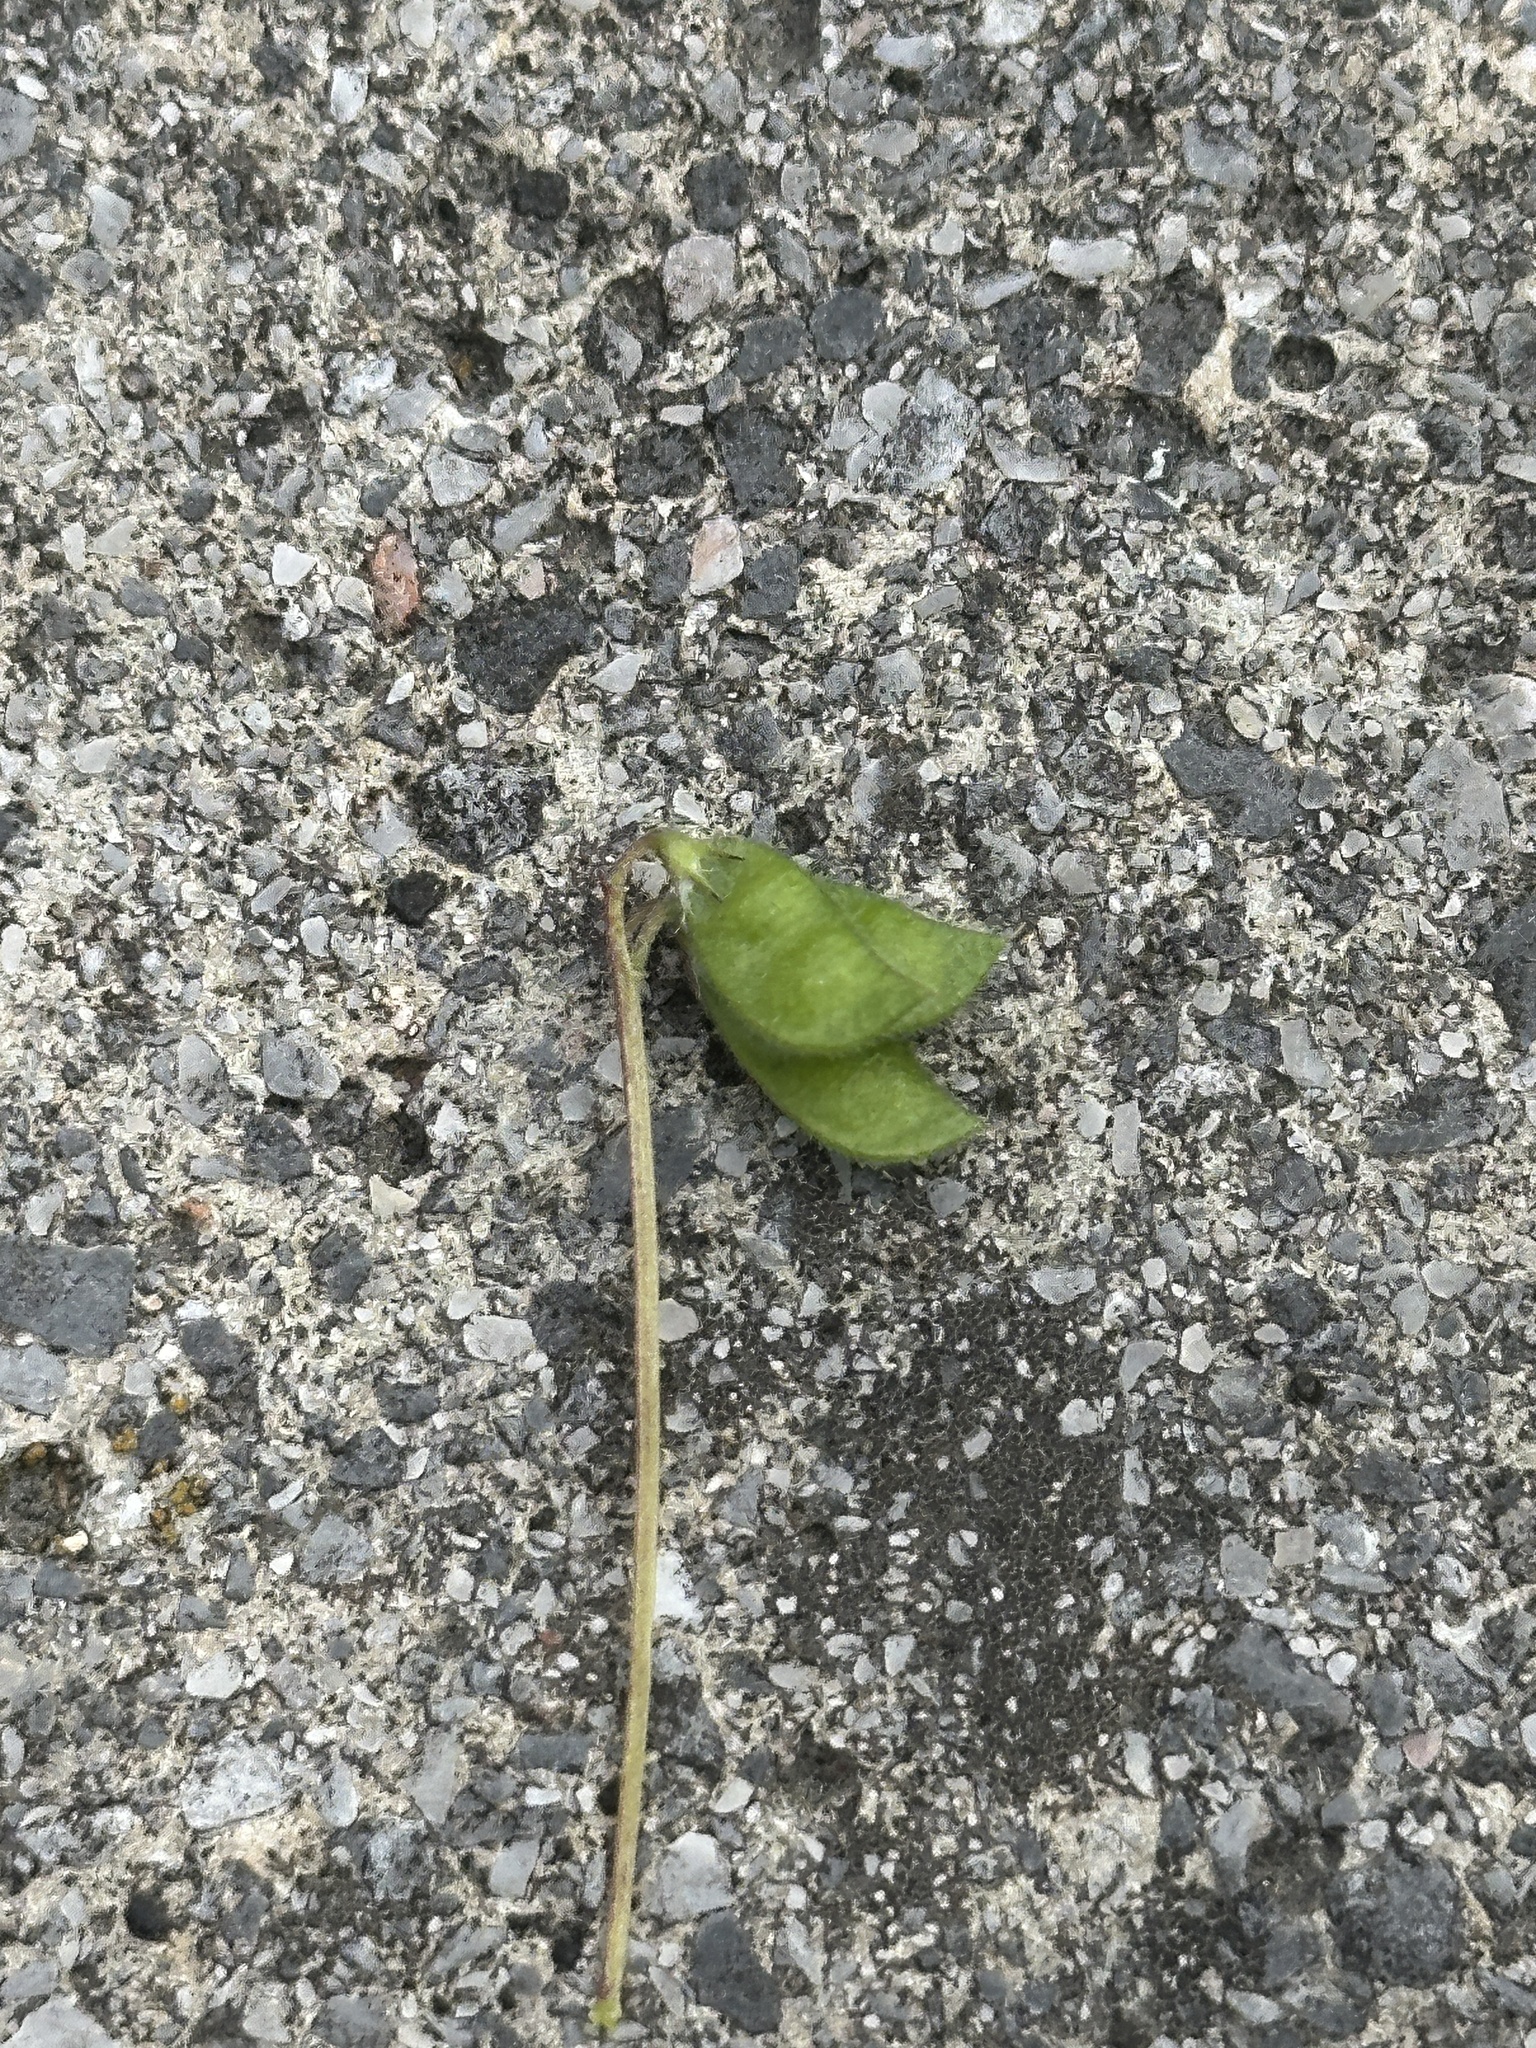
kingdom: Plantae
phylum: Tracheophyta
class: Magnoliopsida
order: Fabales
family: Fabaceae
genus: Vicia
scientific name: Vicia hirsuta
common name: Tiny vetch
